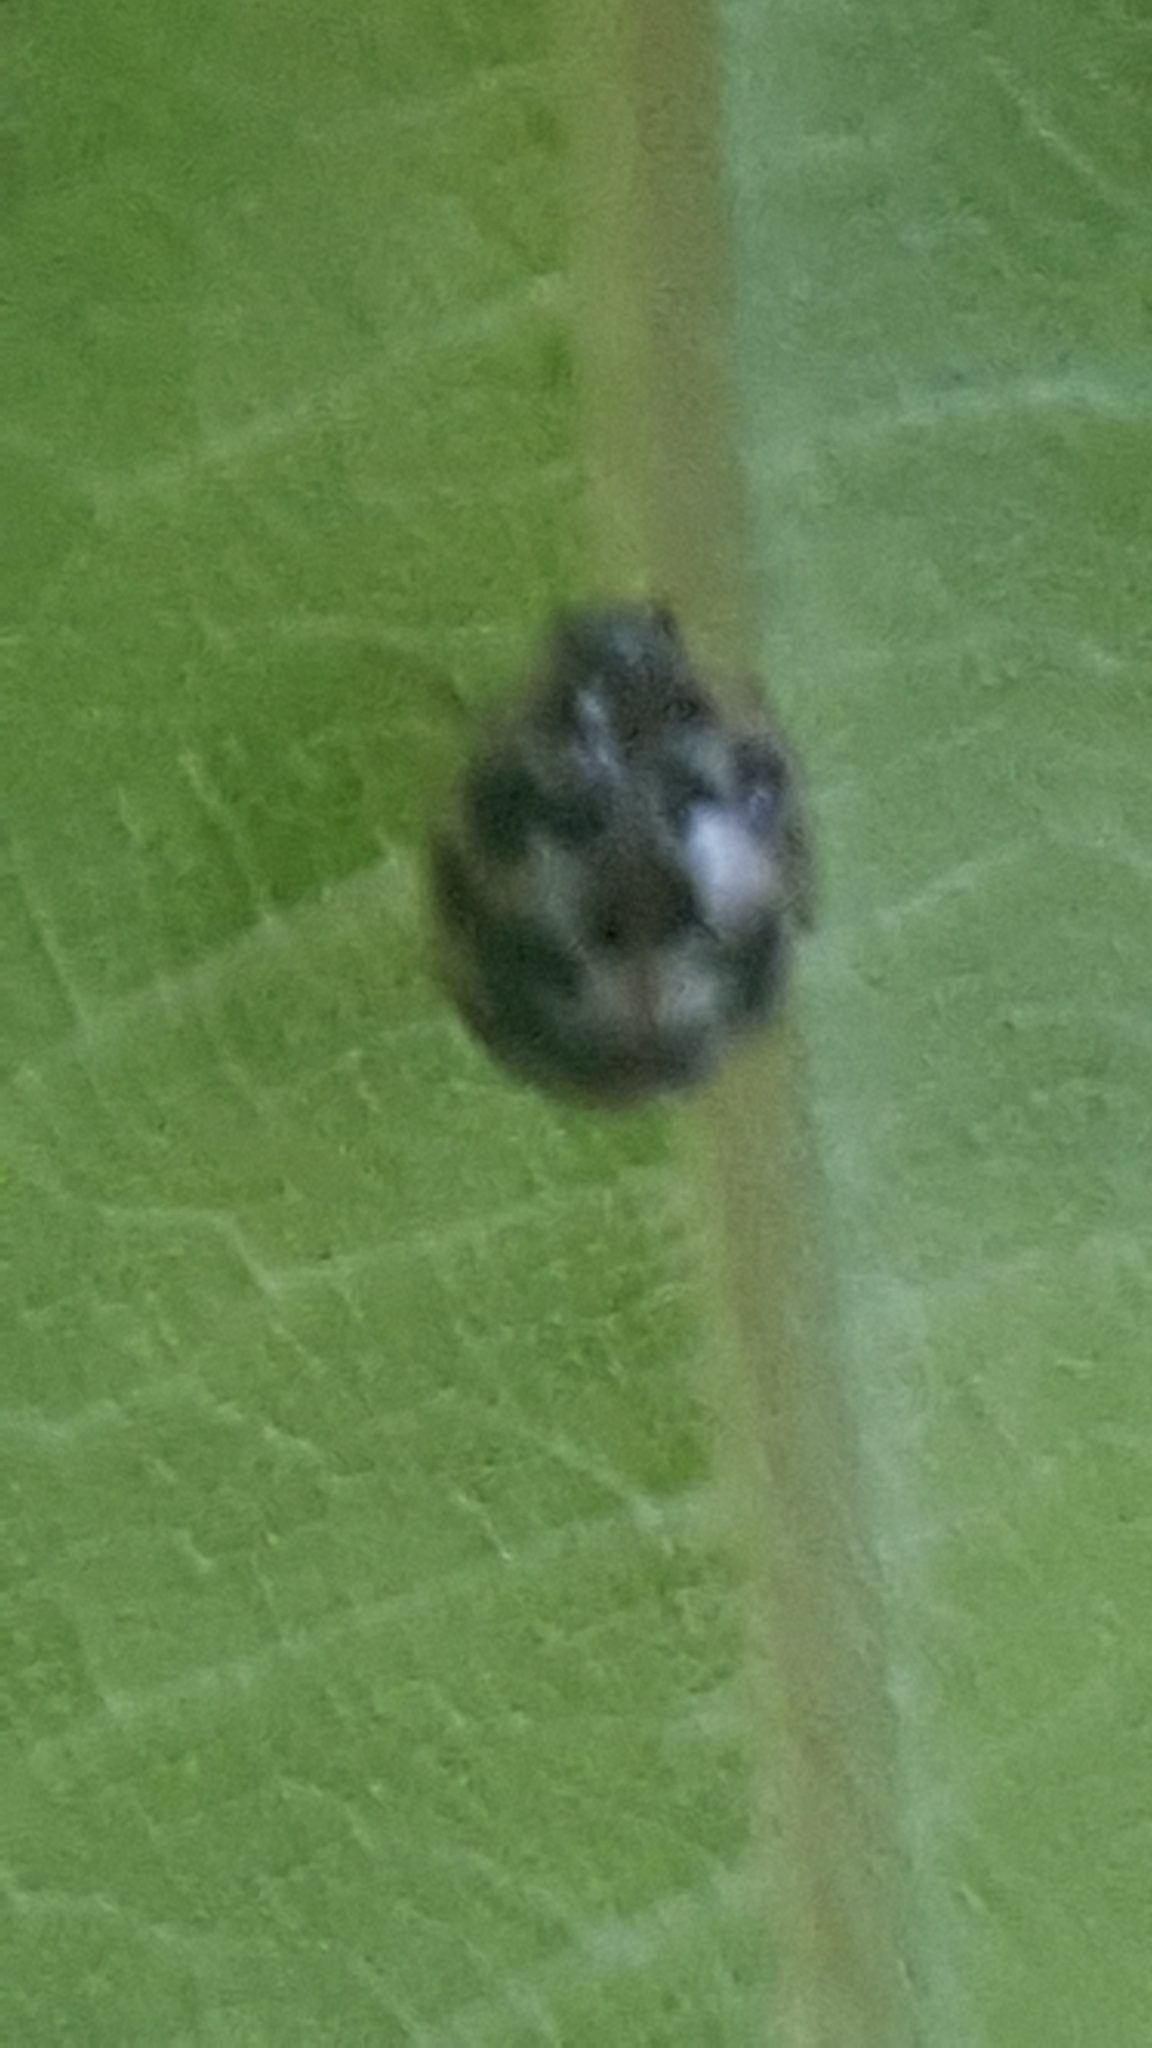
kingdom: Animalia
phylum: Arthropoda
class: Insecta
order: Coleoptera
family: Coccinellidae
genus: Psyllobora
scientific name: Psyllobora vigintimaculata
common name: Ladybird beetle
